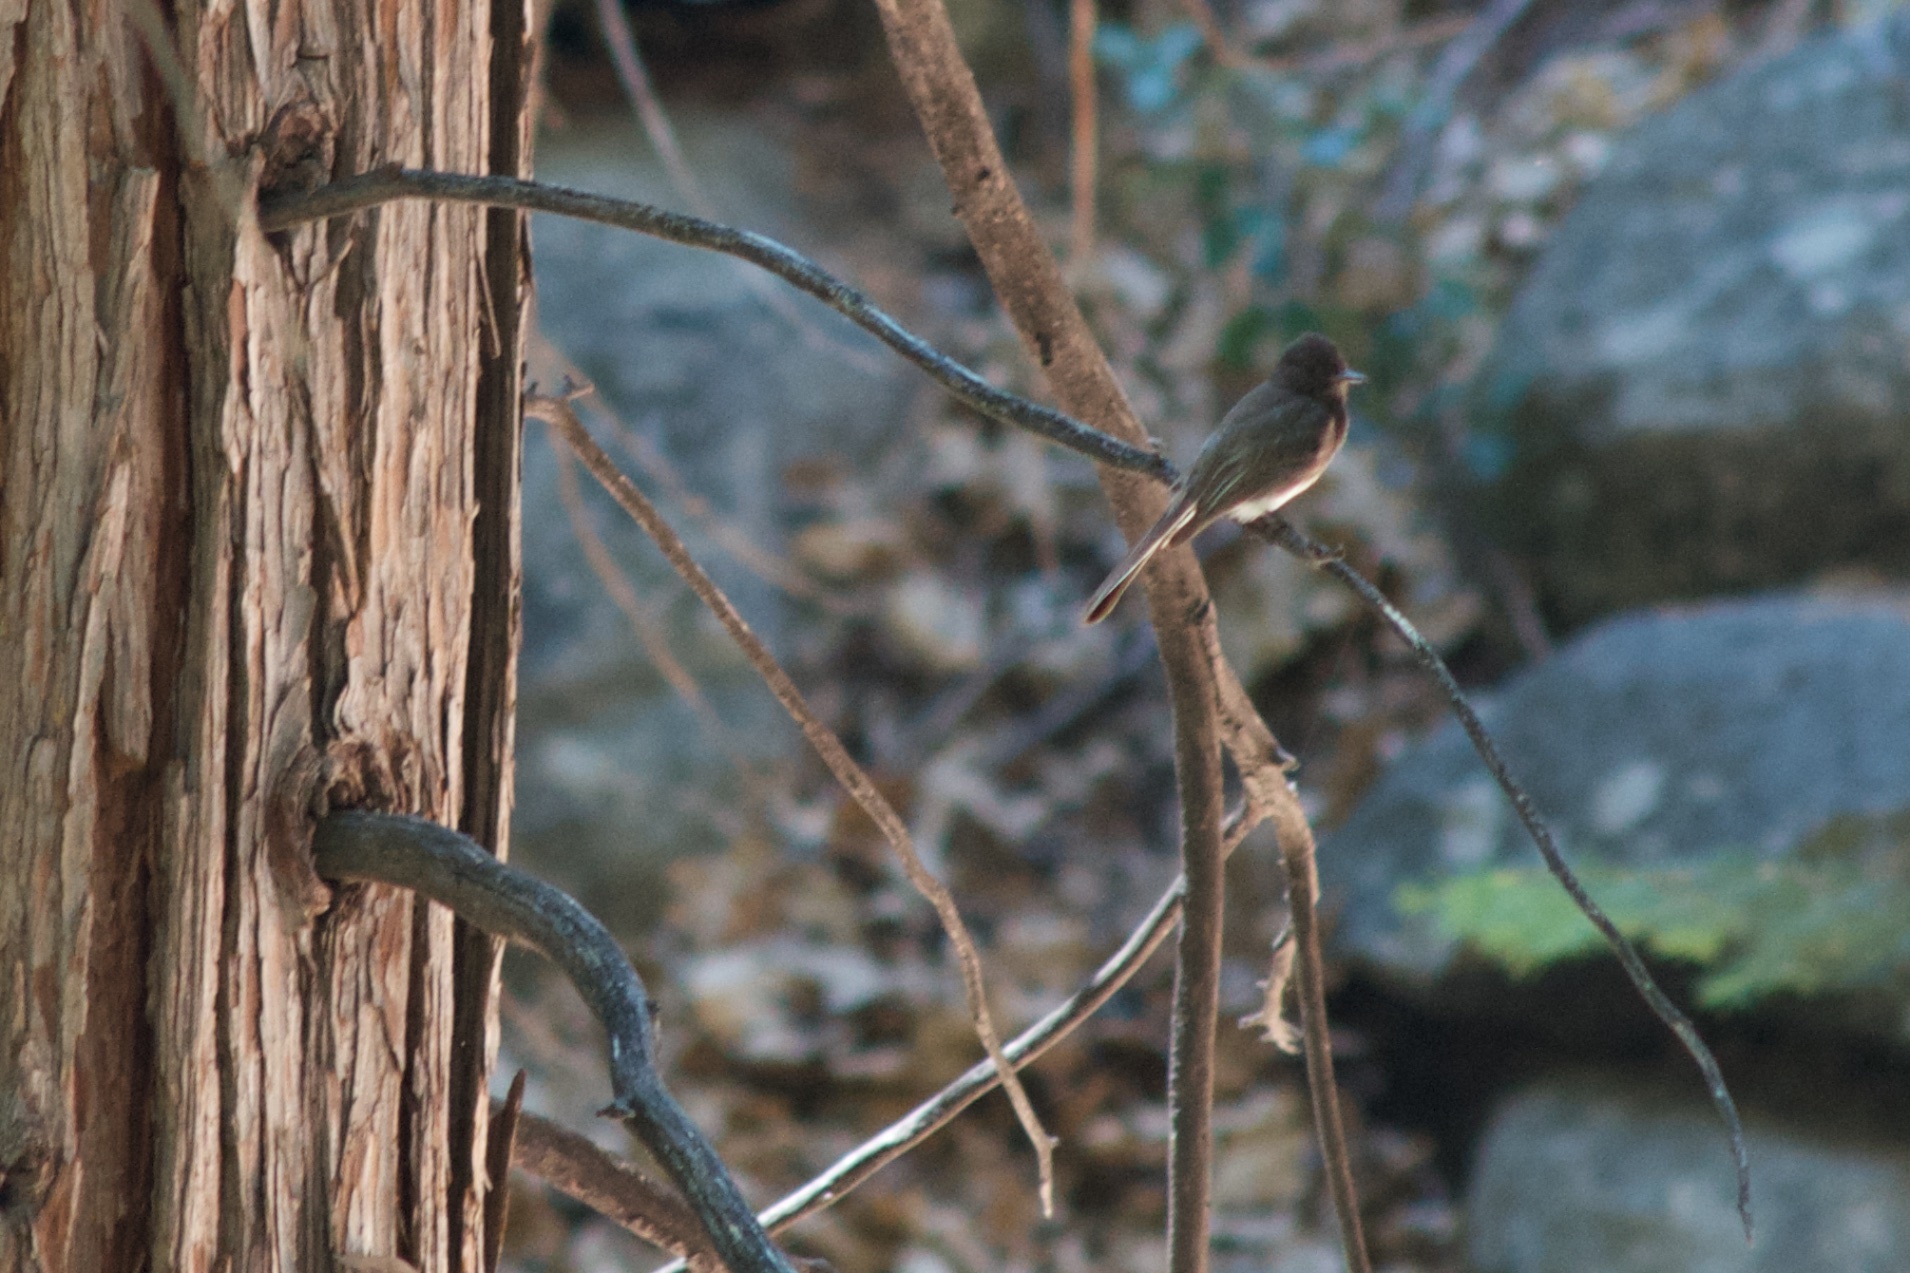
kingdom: Animalia
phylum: Chordata
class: Aves
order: Passeriformes
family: Tyrannidae
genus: Sayornis
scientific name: Sayornis nigricans
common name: Black phoebe
